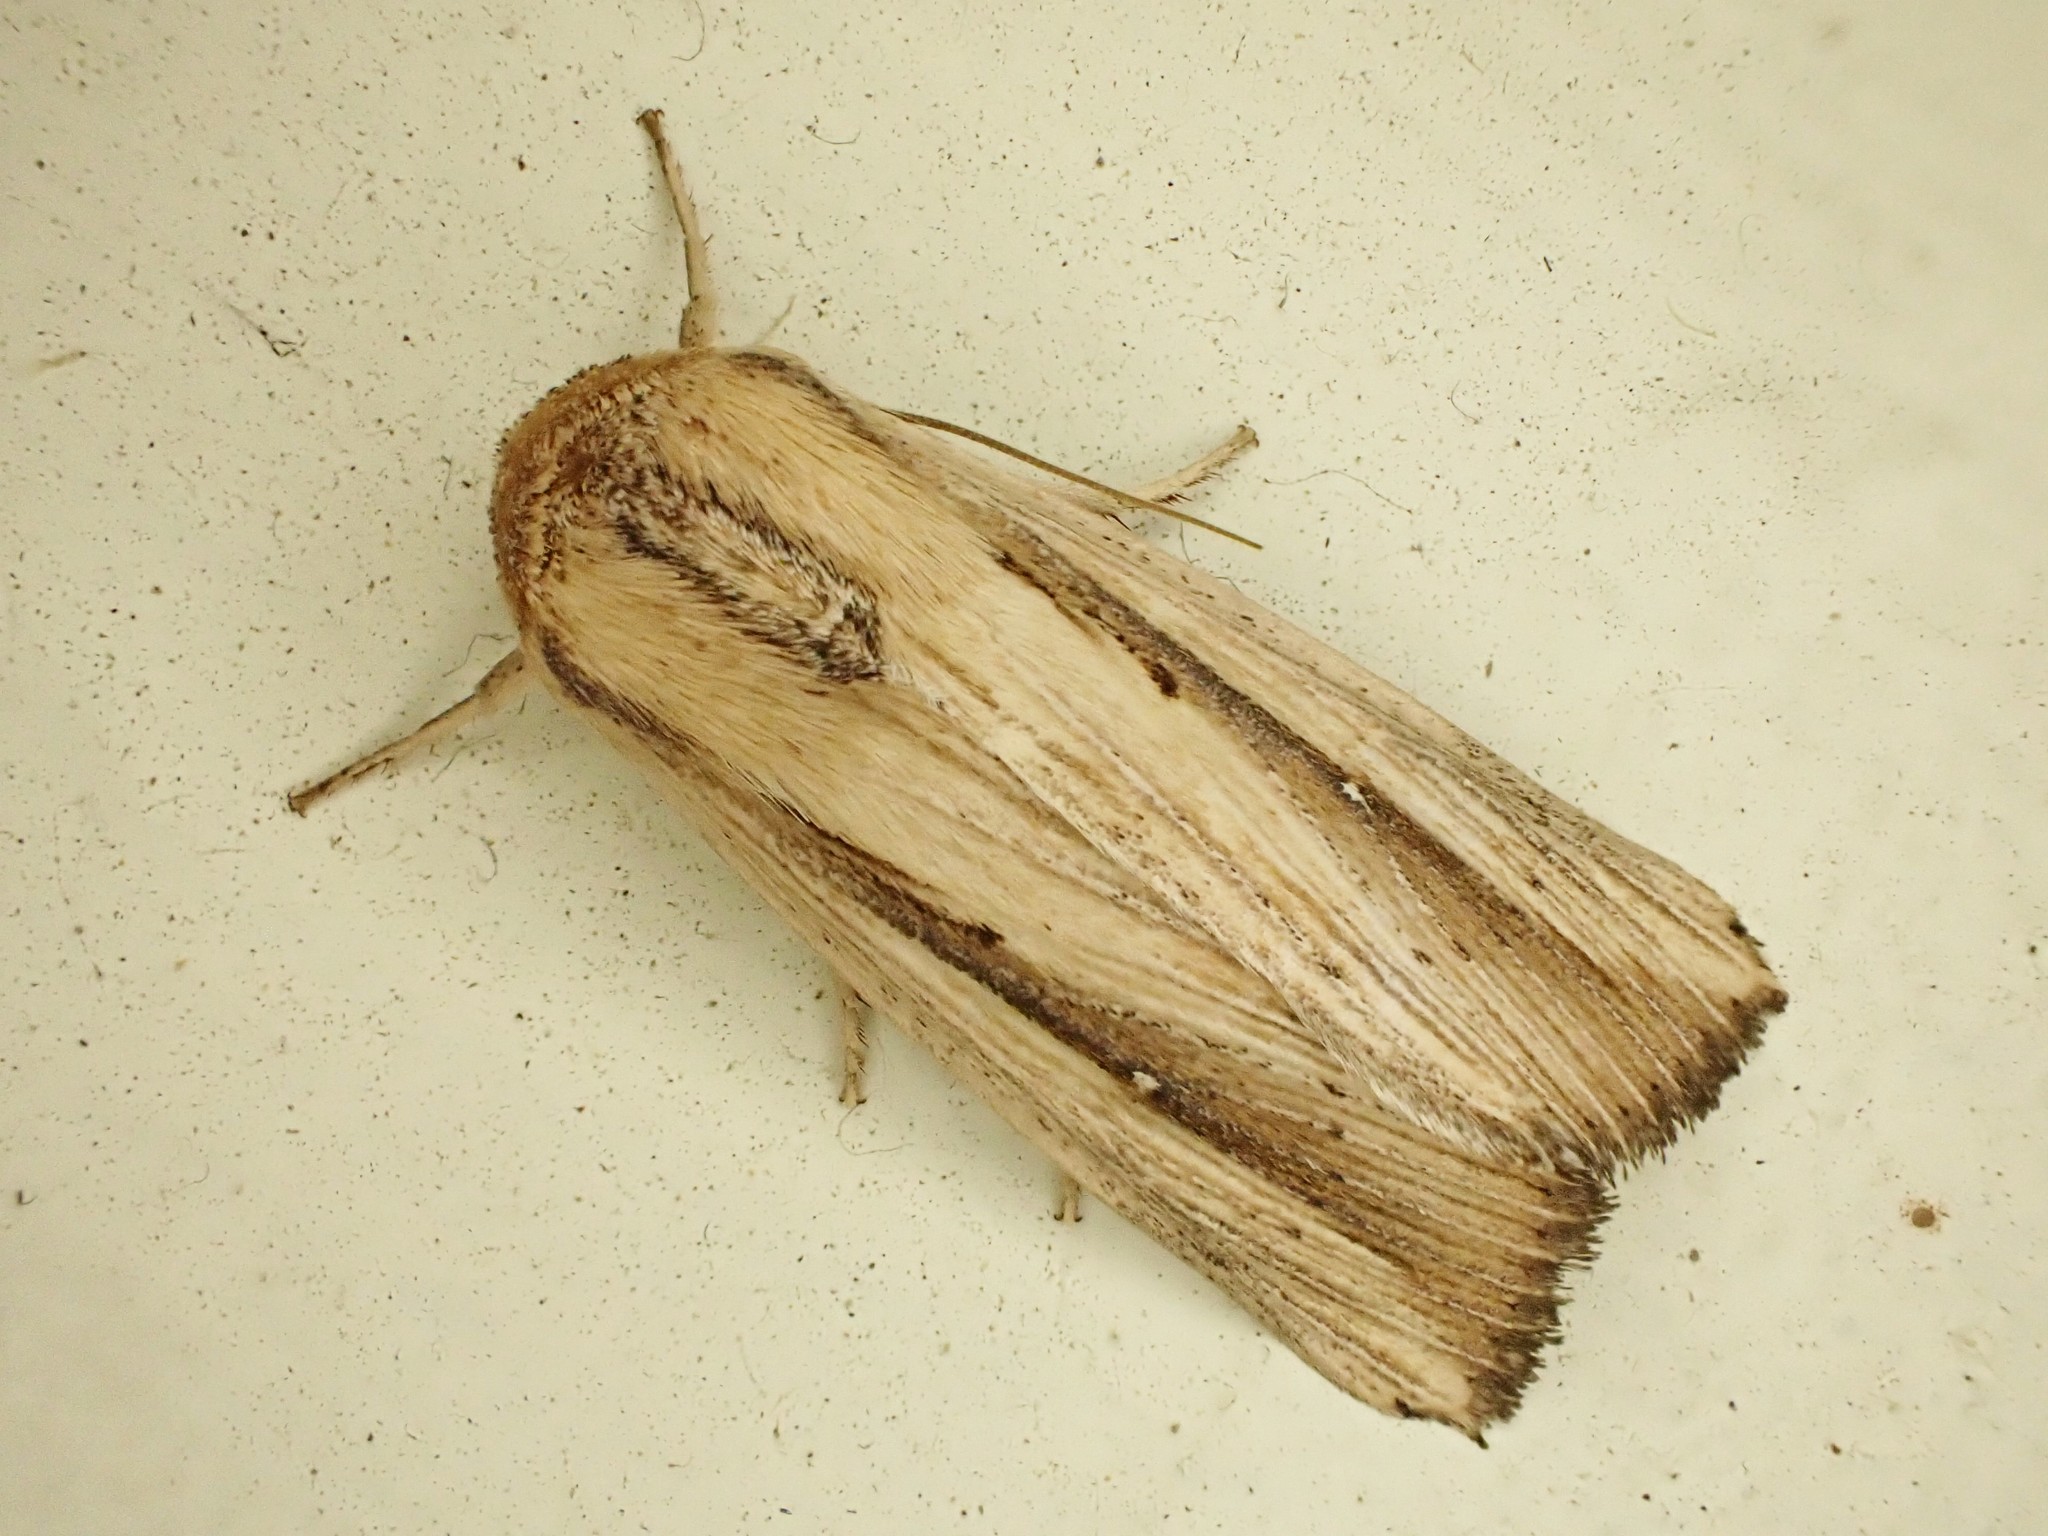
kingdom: Animalia
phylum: Arthropoda
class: Insecta
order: Lepidoptera
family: Noctuidae
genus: Leucania
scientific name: Leucania stenographa
